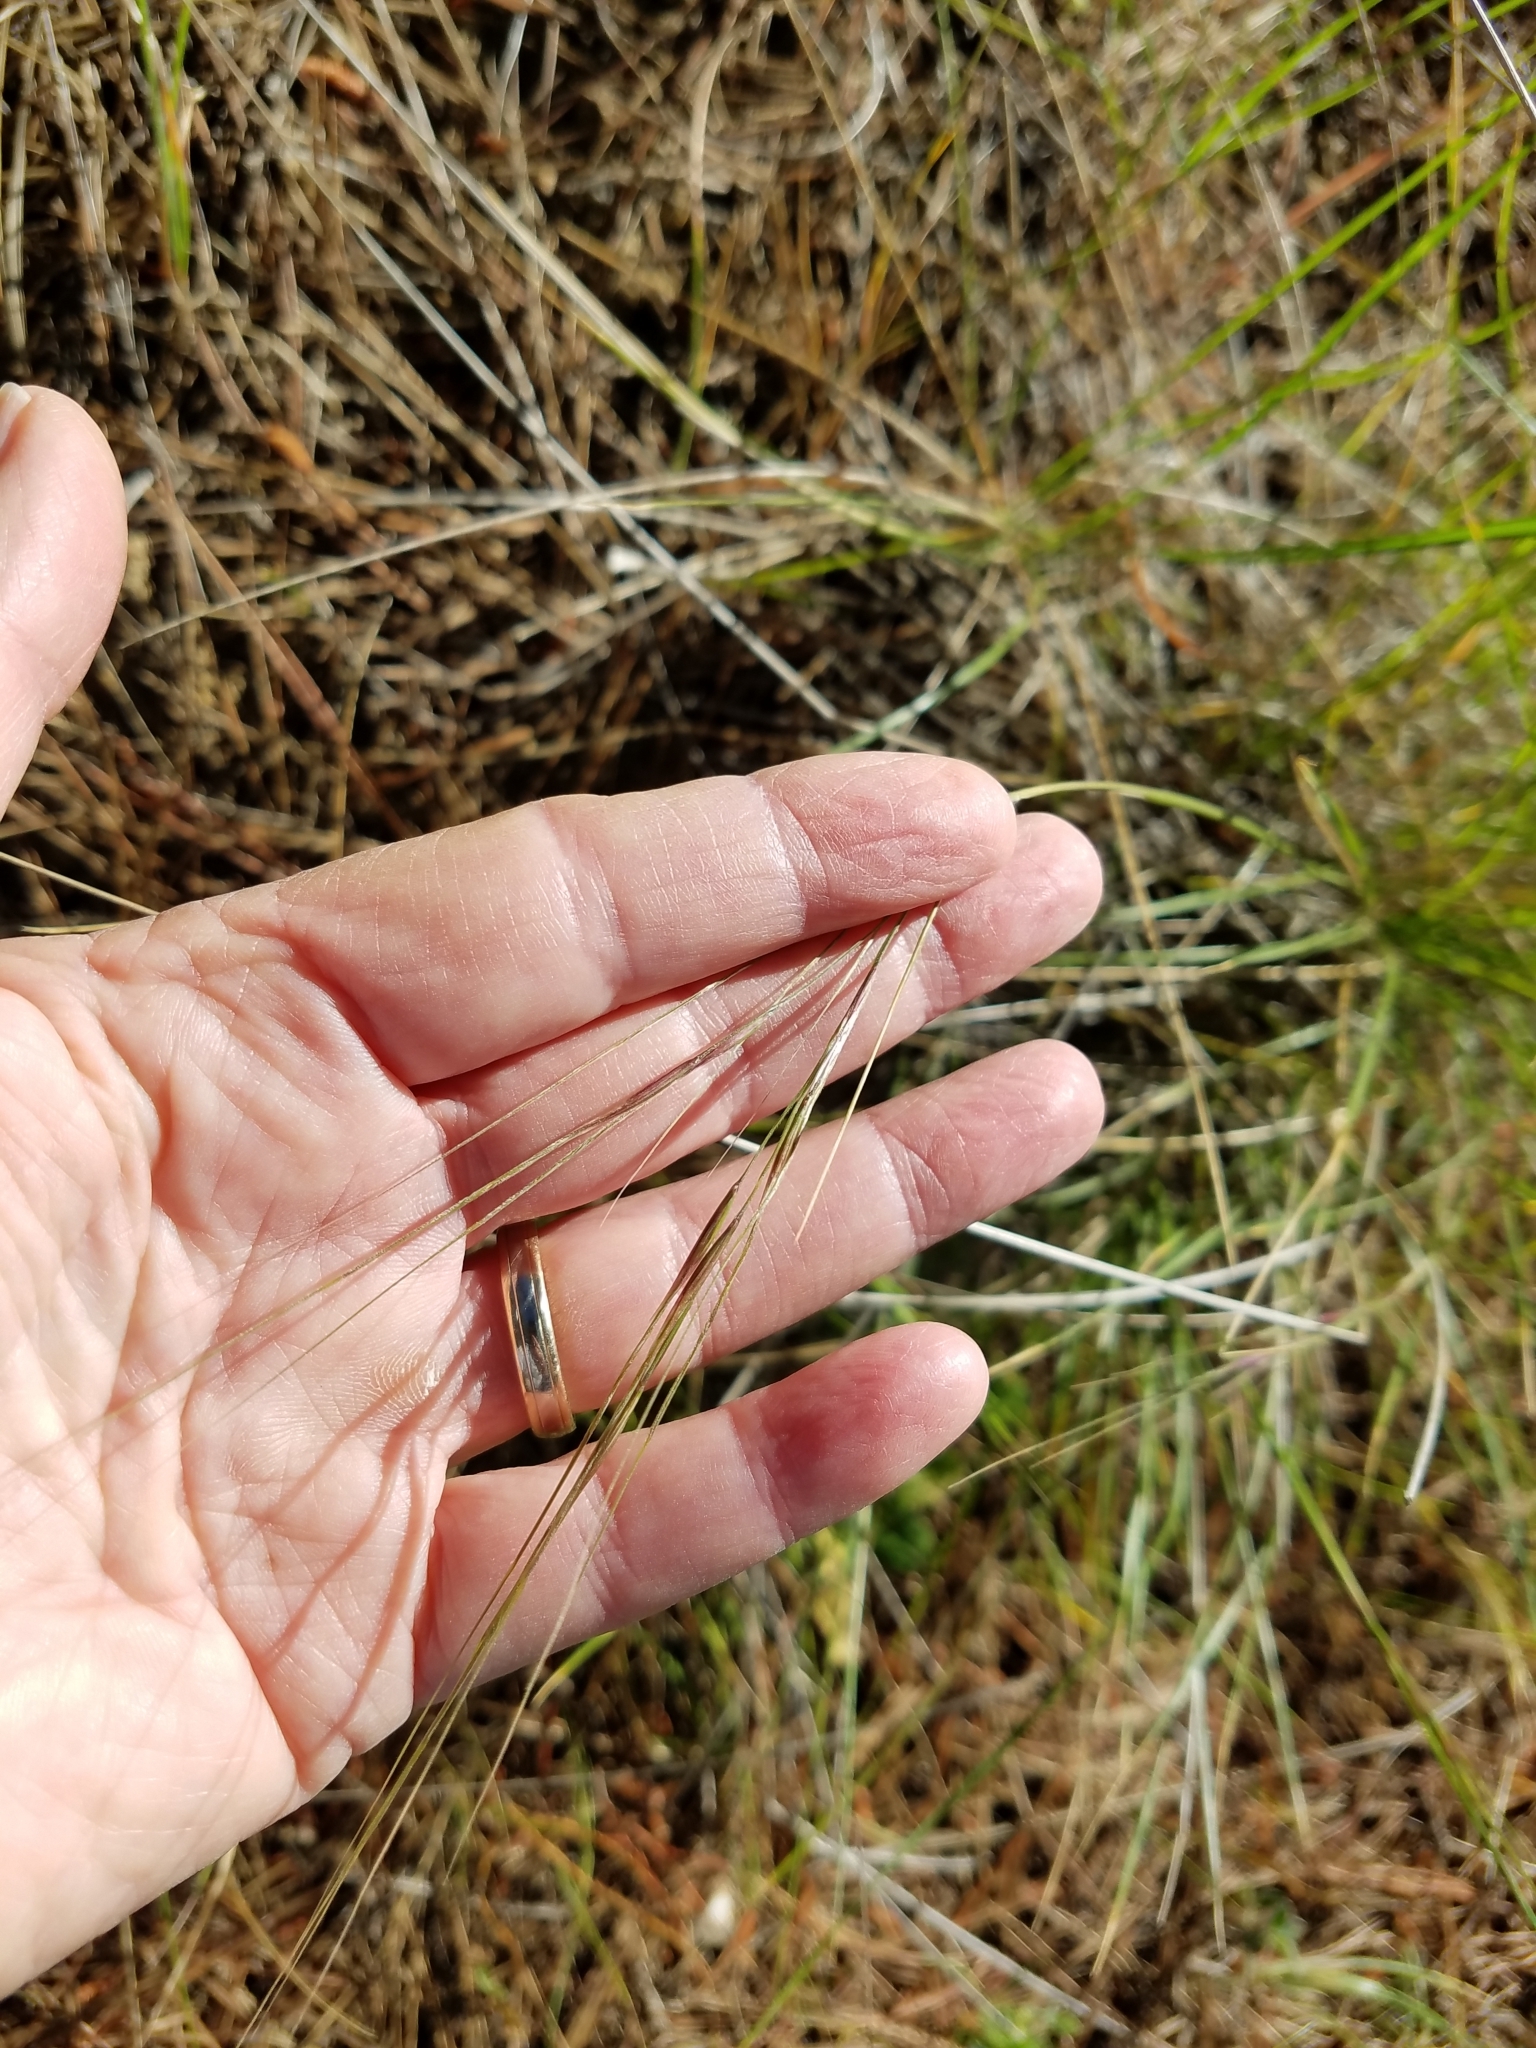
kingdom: Plantae
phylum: Tracheophyta
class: Liliopsida
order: Poales
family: Poaceae
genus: Nassella
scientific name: Nassella pulchra
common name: Purple needlegrass
